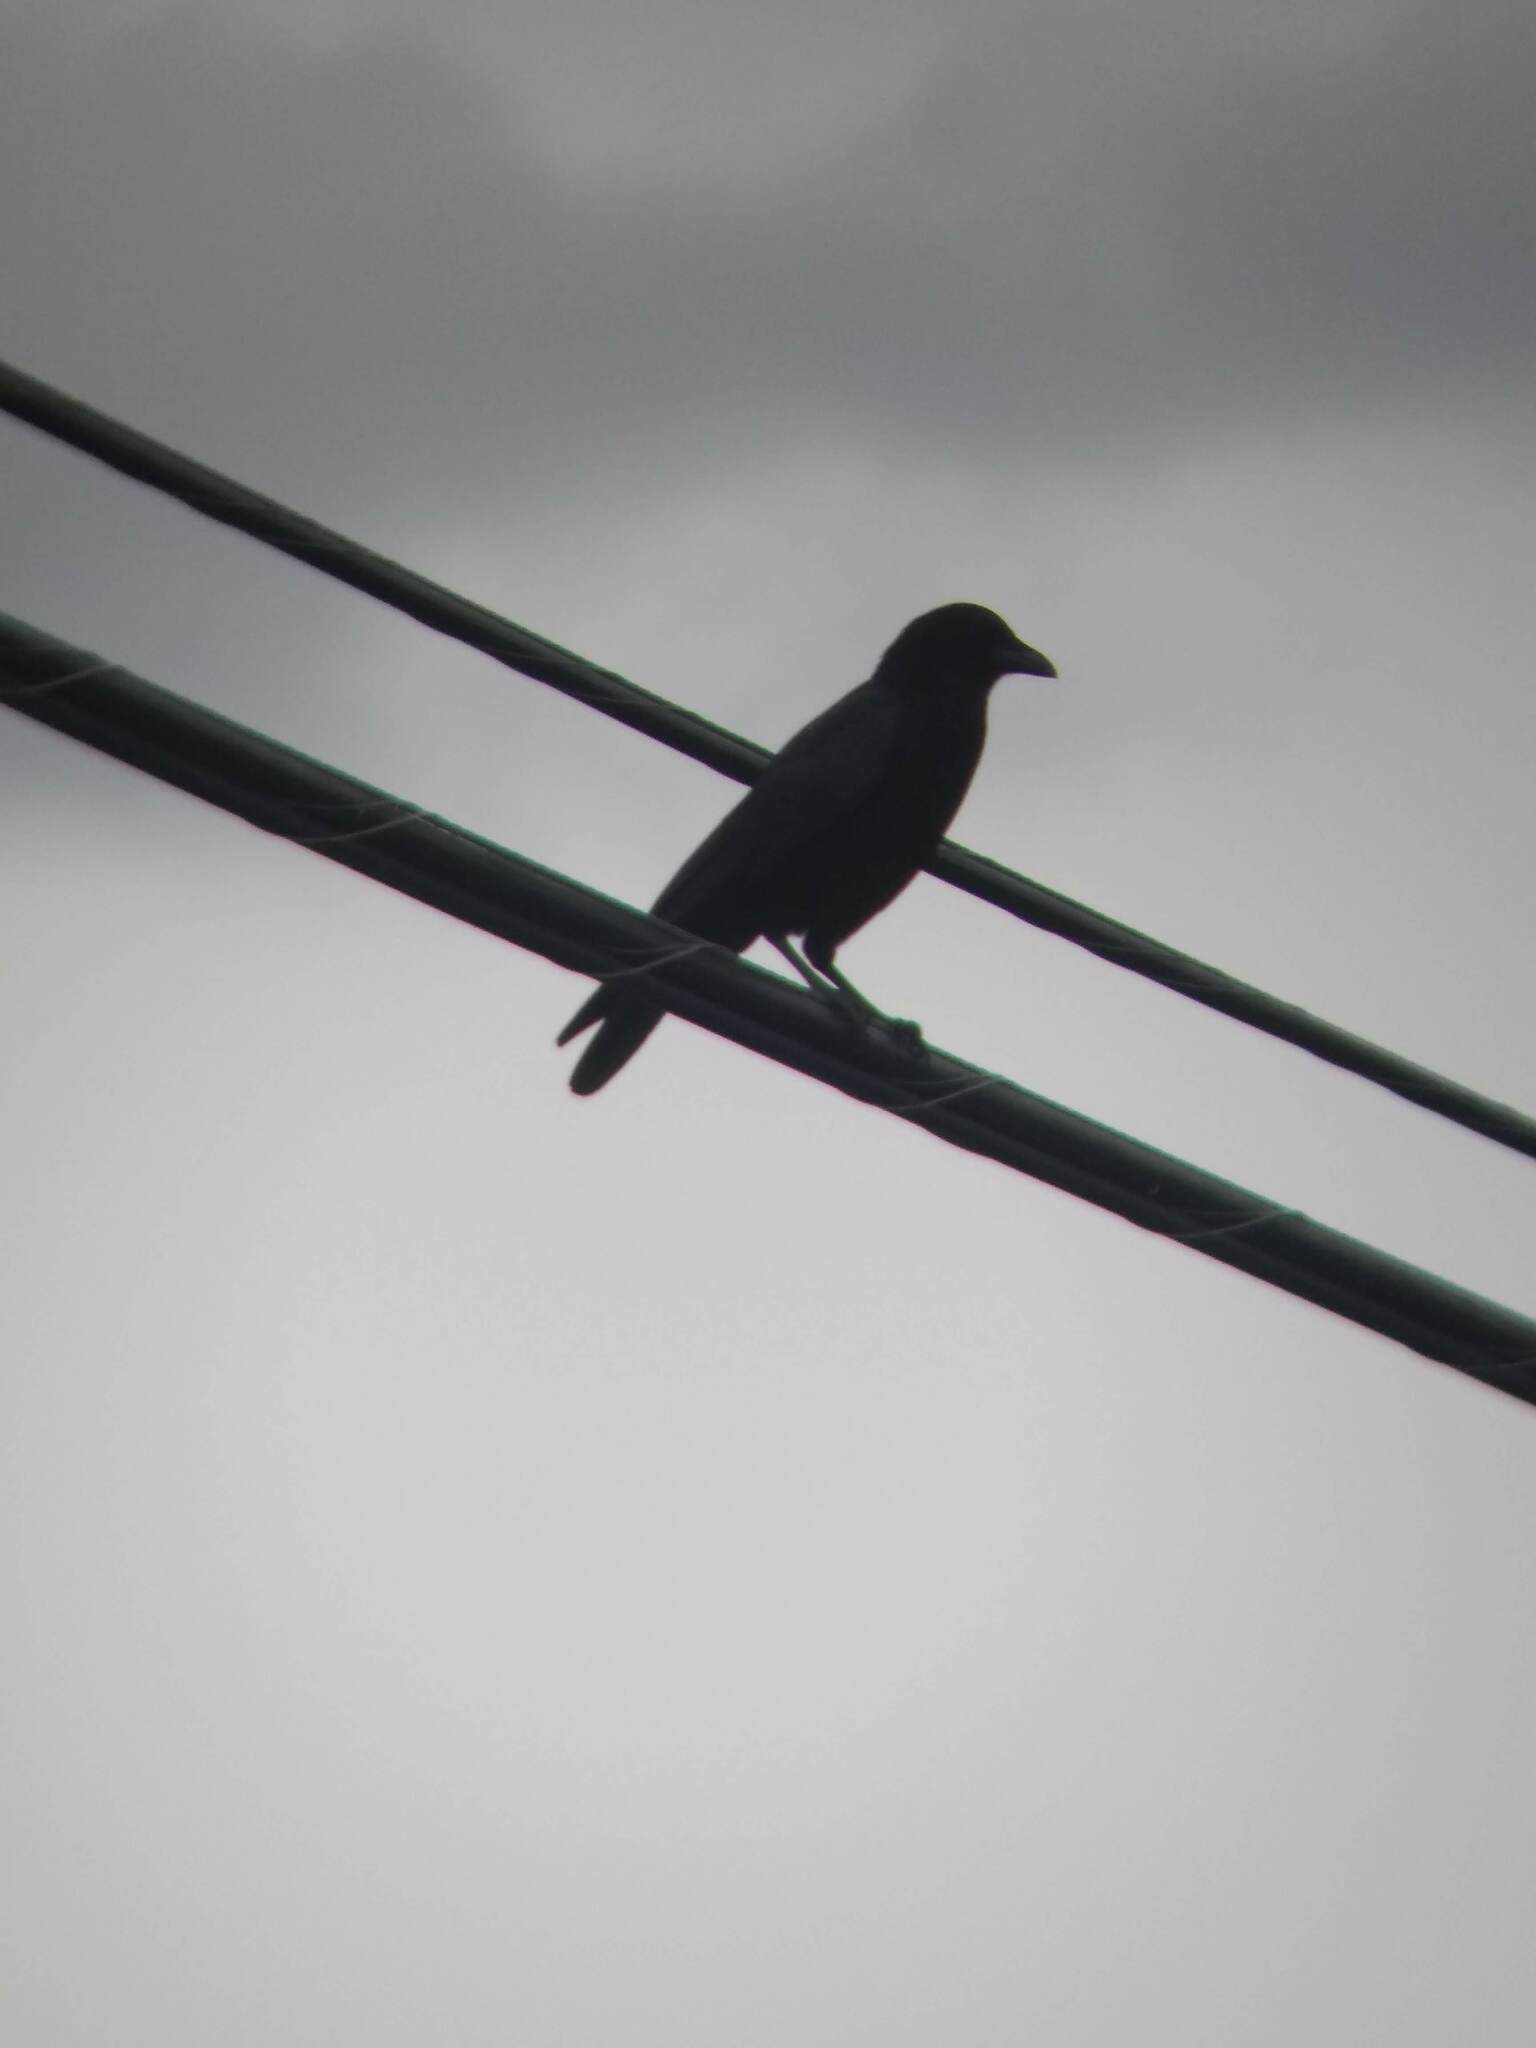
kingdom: Animalia
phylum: Chordata
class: Aves
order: Passeriformes
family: Corvidae
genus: Corvus
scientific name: Corvus brachyrhynchos
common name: American crow
